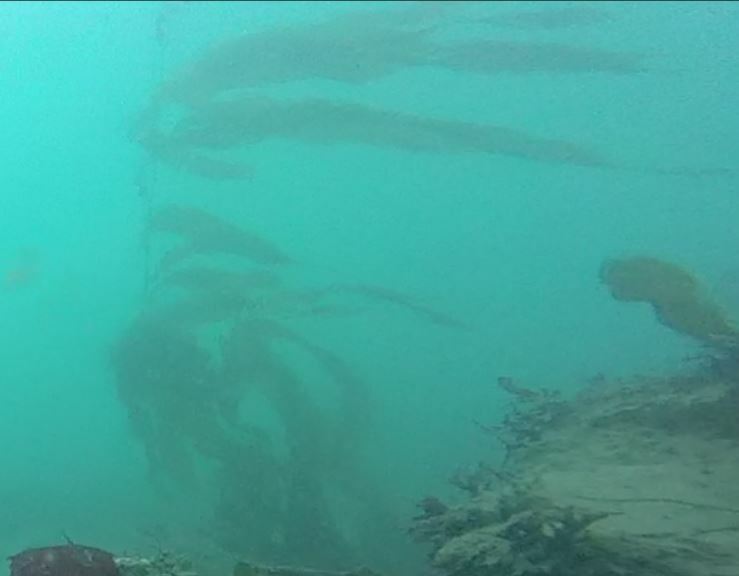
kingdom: Chromista
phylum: Ochrophyta
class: Phaeophyceae
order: Laminariales
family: Laminariaceae
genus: Macrocystis
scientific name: Macrocystis pyrifera
